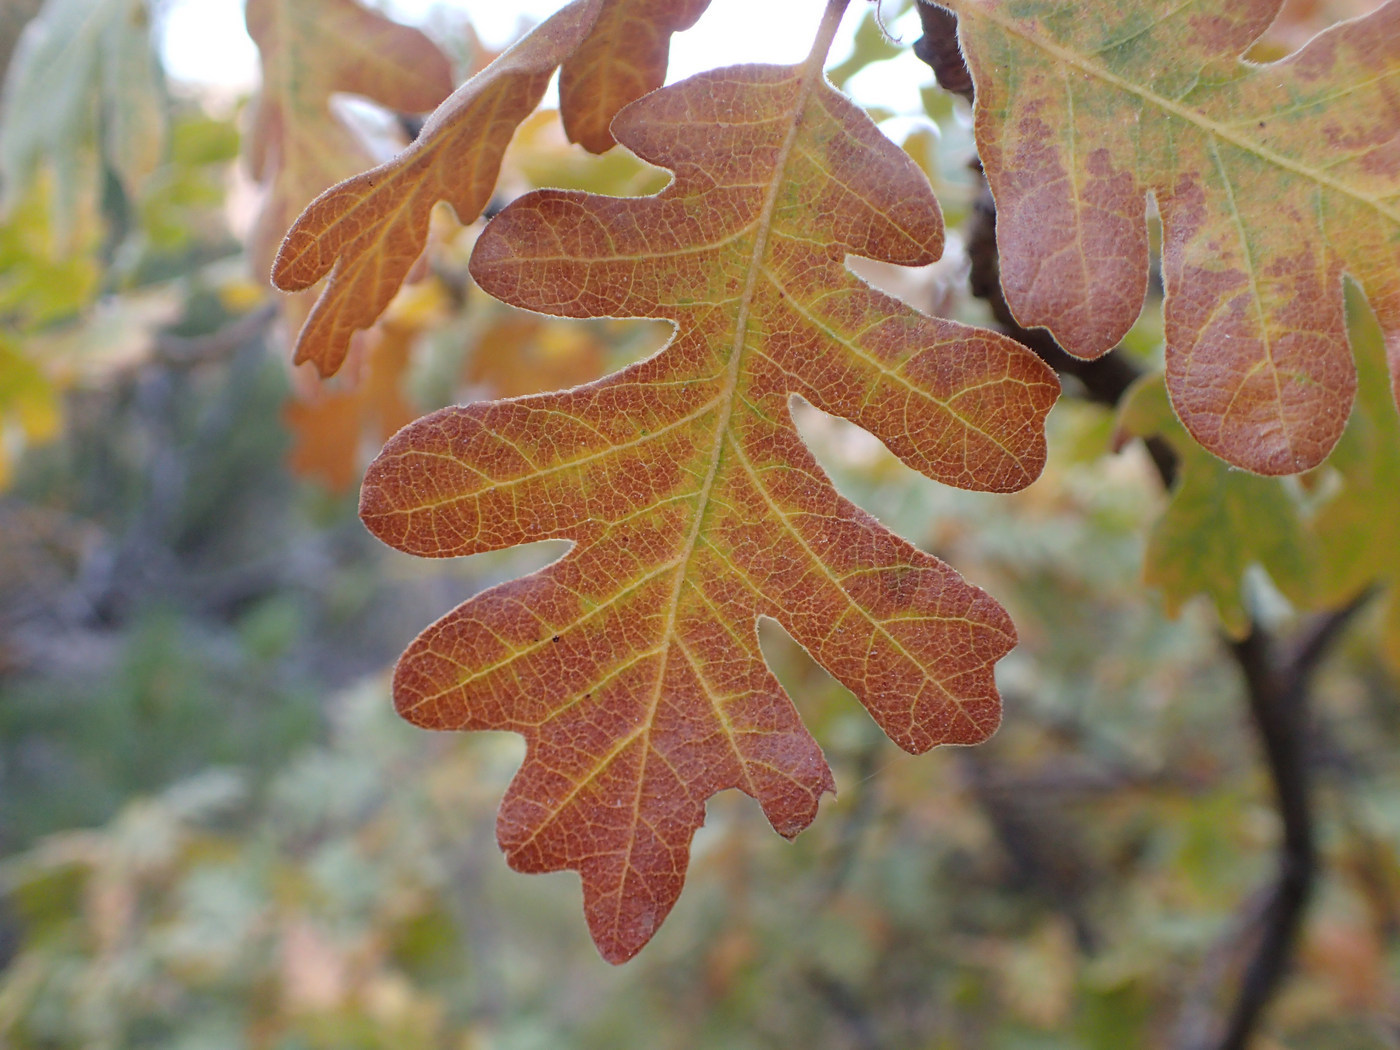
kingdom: Plantae
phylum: Tracheophyta
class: Magnoliopsida
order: Fagales
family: Fagaceae
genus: Quercus
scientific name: Quercus gambelii
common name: Gambel oak
